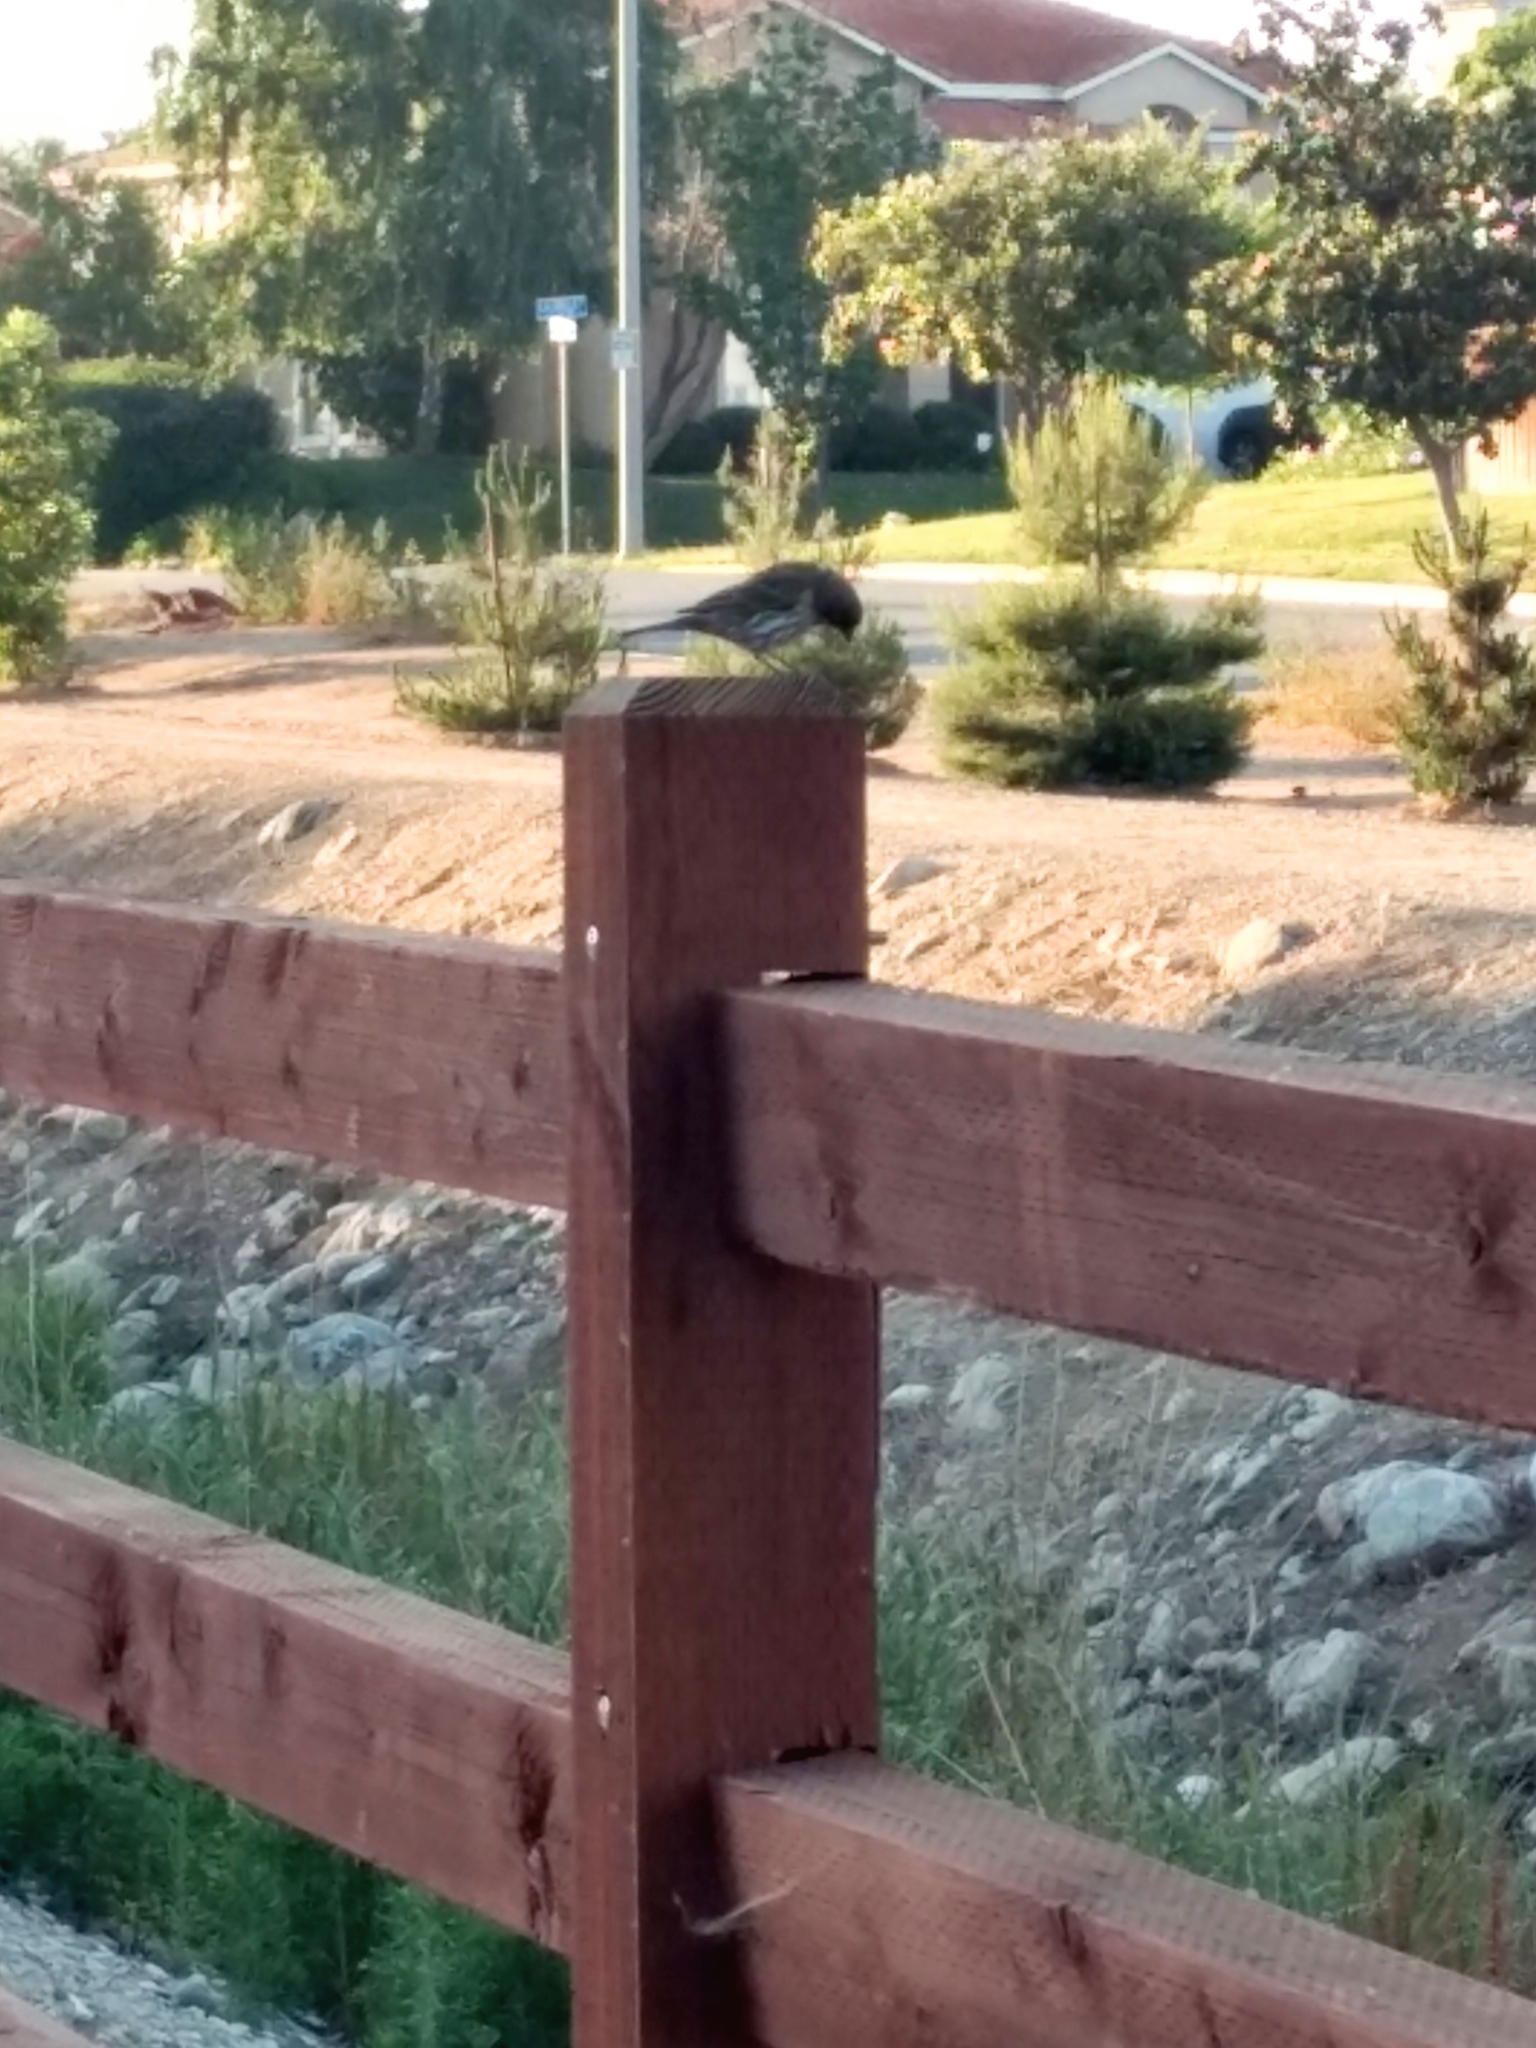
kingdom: Animalia
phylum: Chordata
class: Aves
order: Passeriformes
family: Fringillidae
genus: Haemorhous
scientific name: Haemorhous mexicanus
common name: House finch
